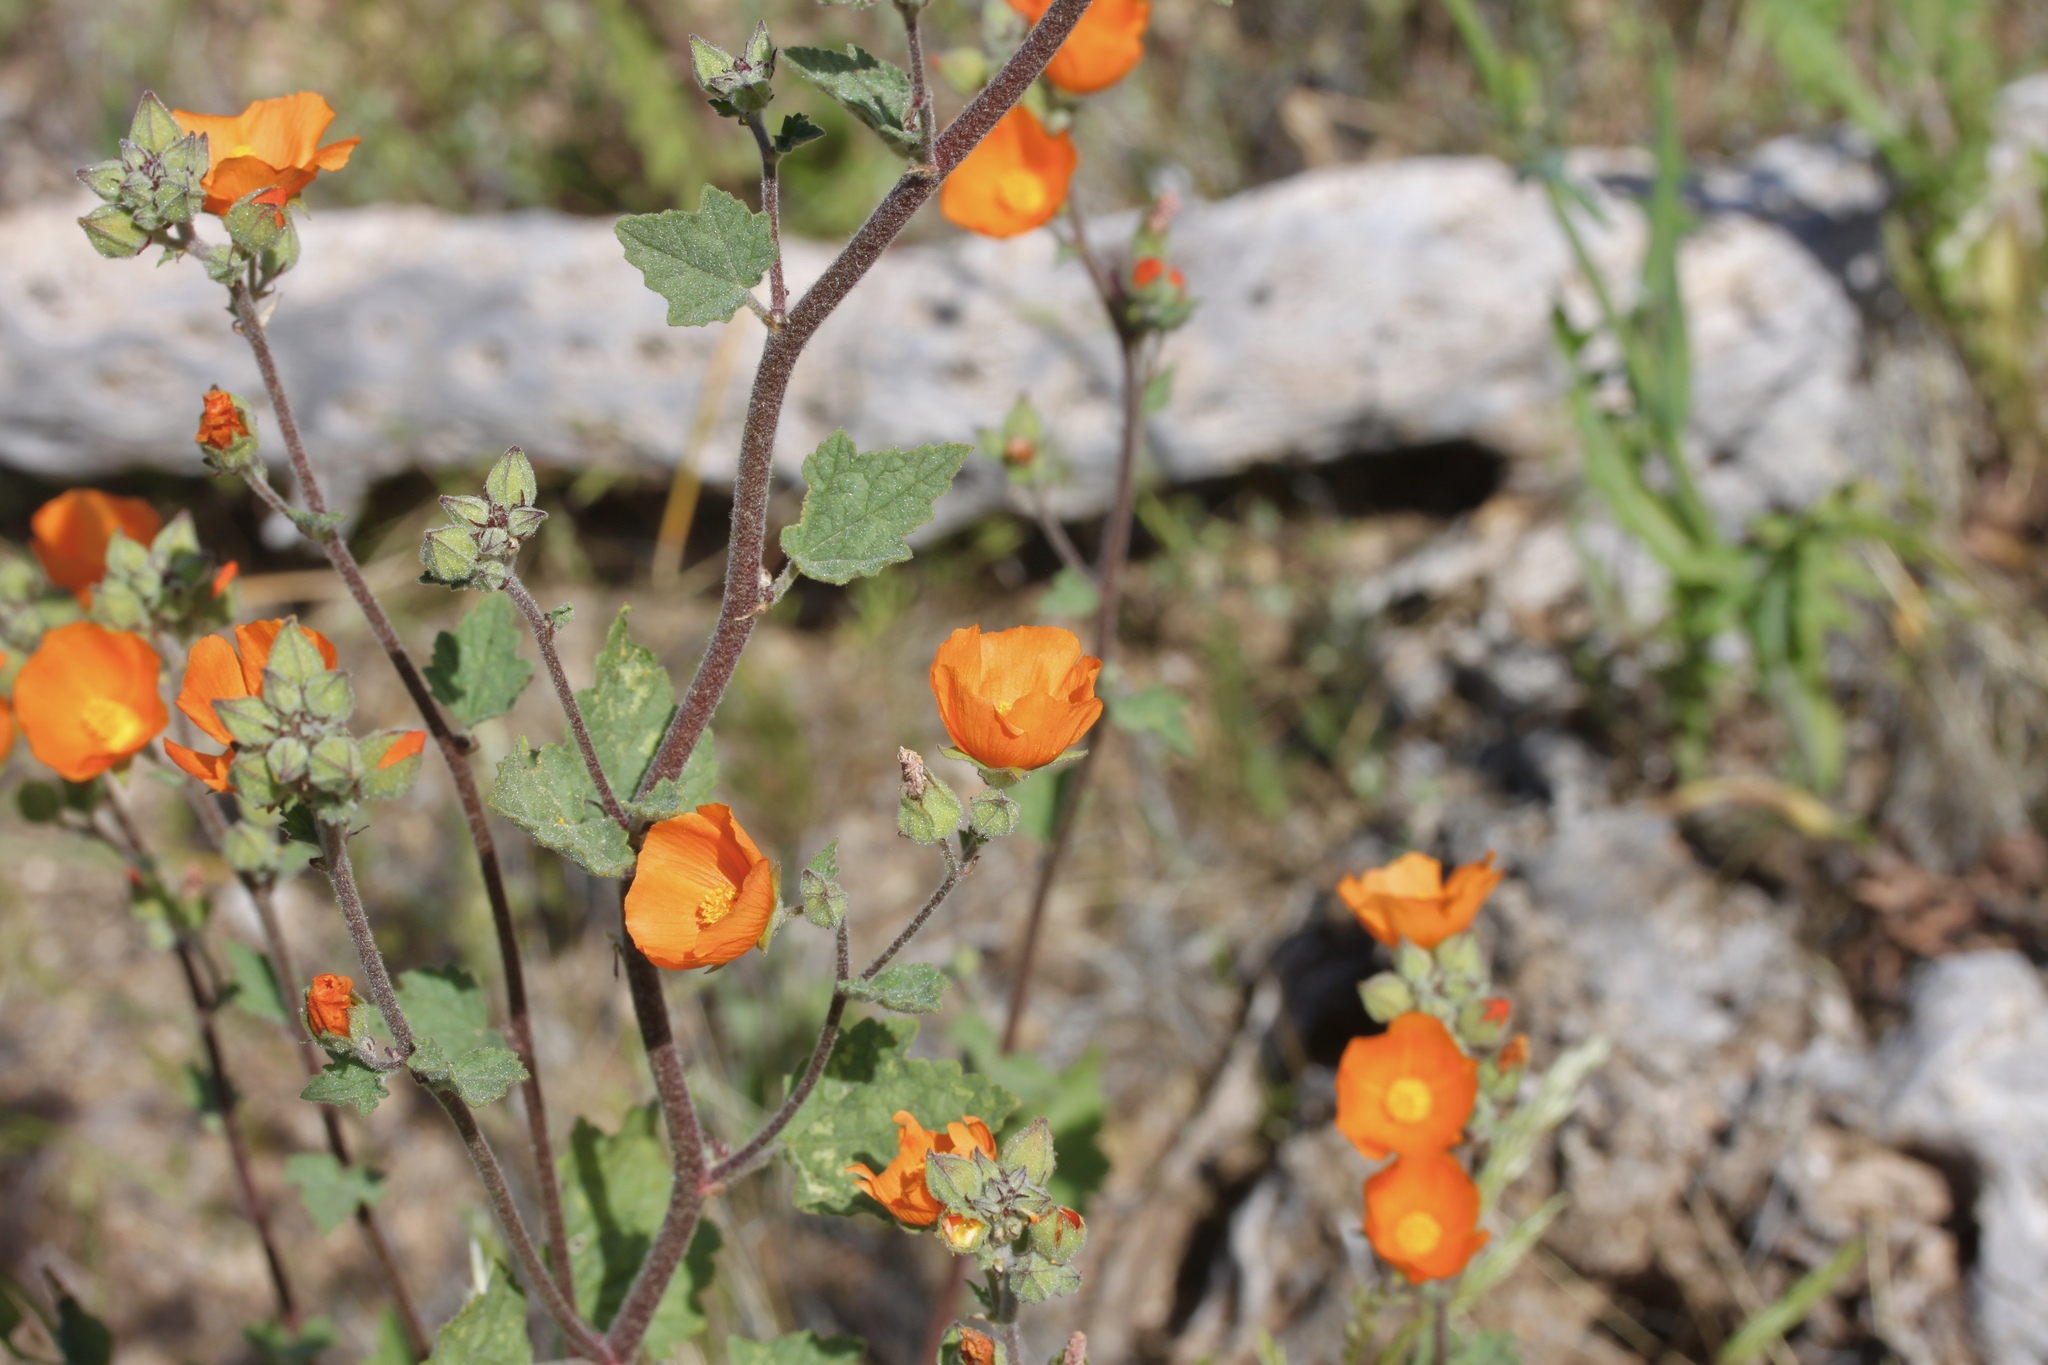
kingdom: Plantae
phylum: Tracheophyta
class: Magnoliopsida
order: Malvales
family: Malvaceae
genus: Sphaeralcea
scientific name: Sphaeralcea coulteri
